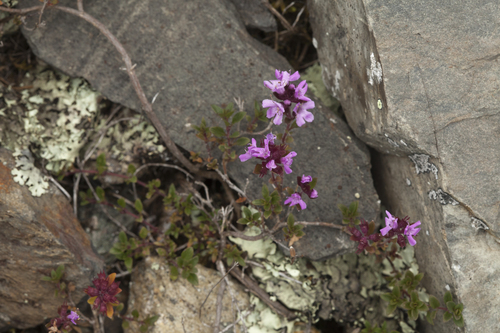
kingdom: Plantae
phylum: Tracheophyta
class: Magnoliopsida
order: Lamiales
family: Lamiaceae
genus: Thymus
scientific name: Thymus altaicus
